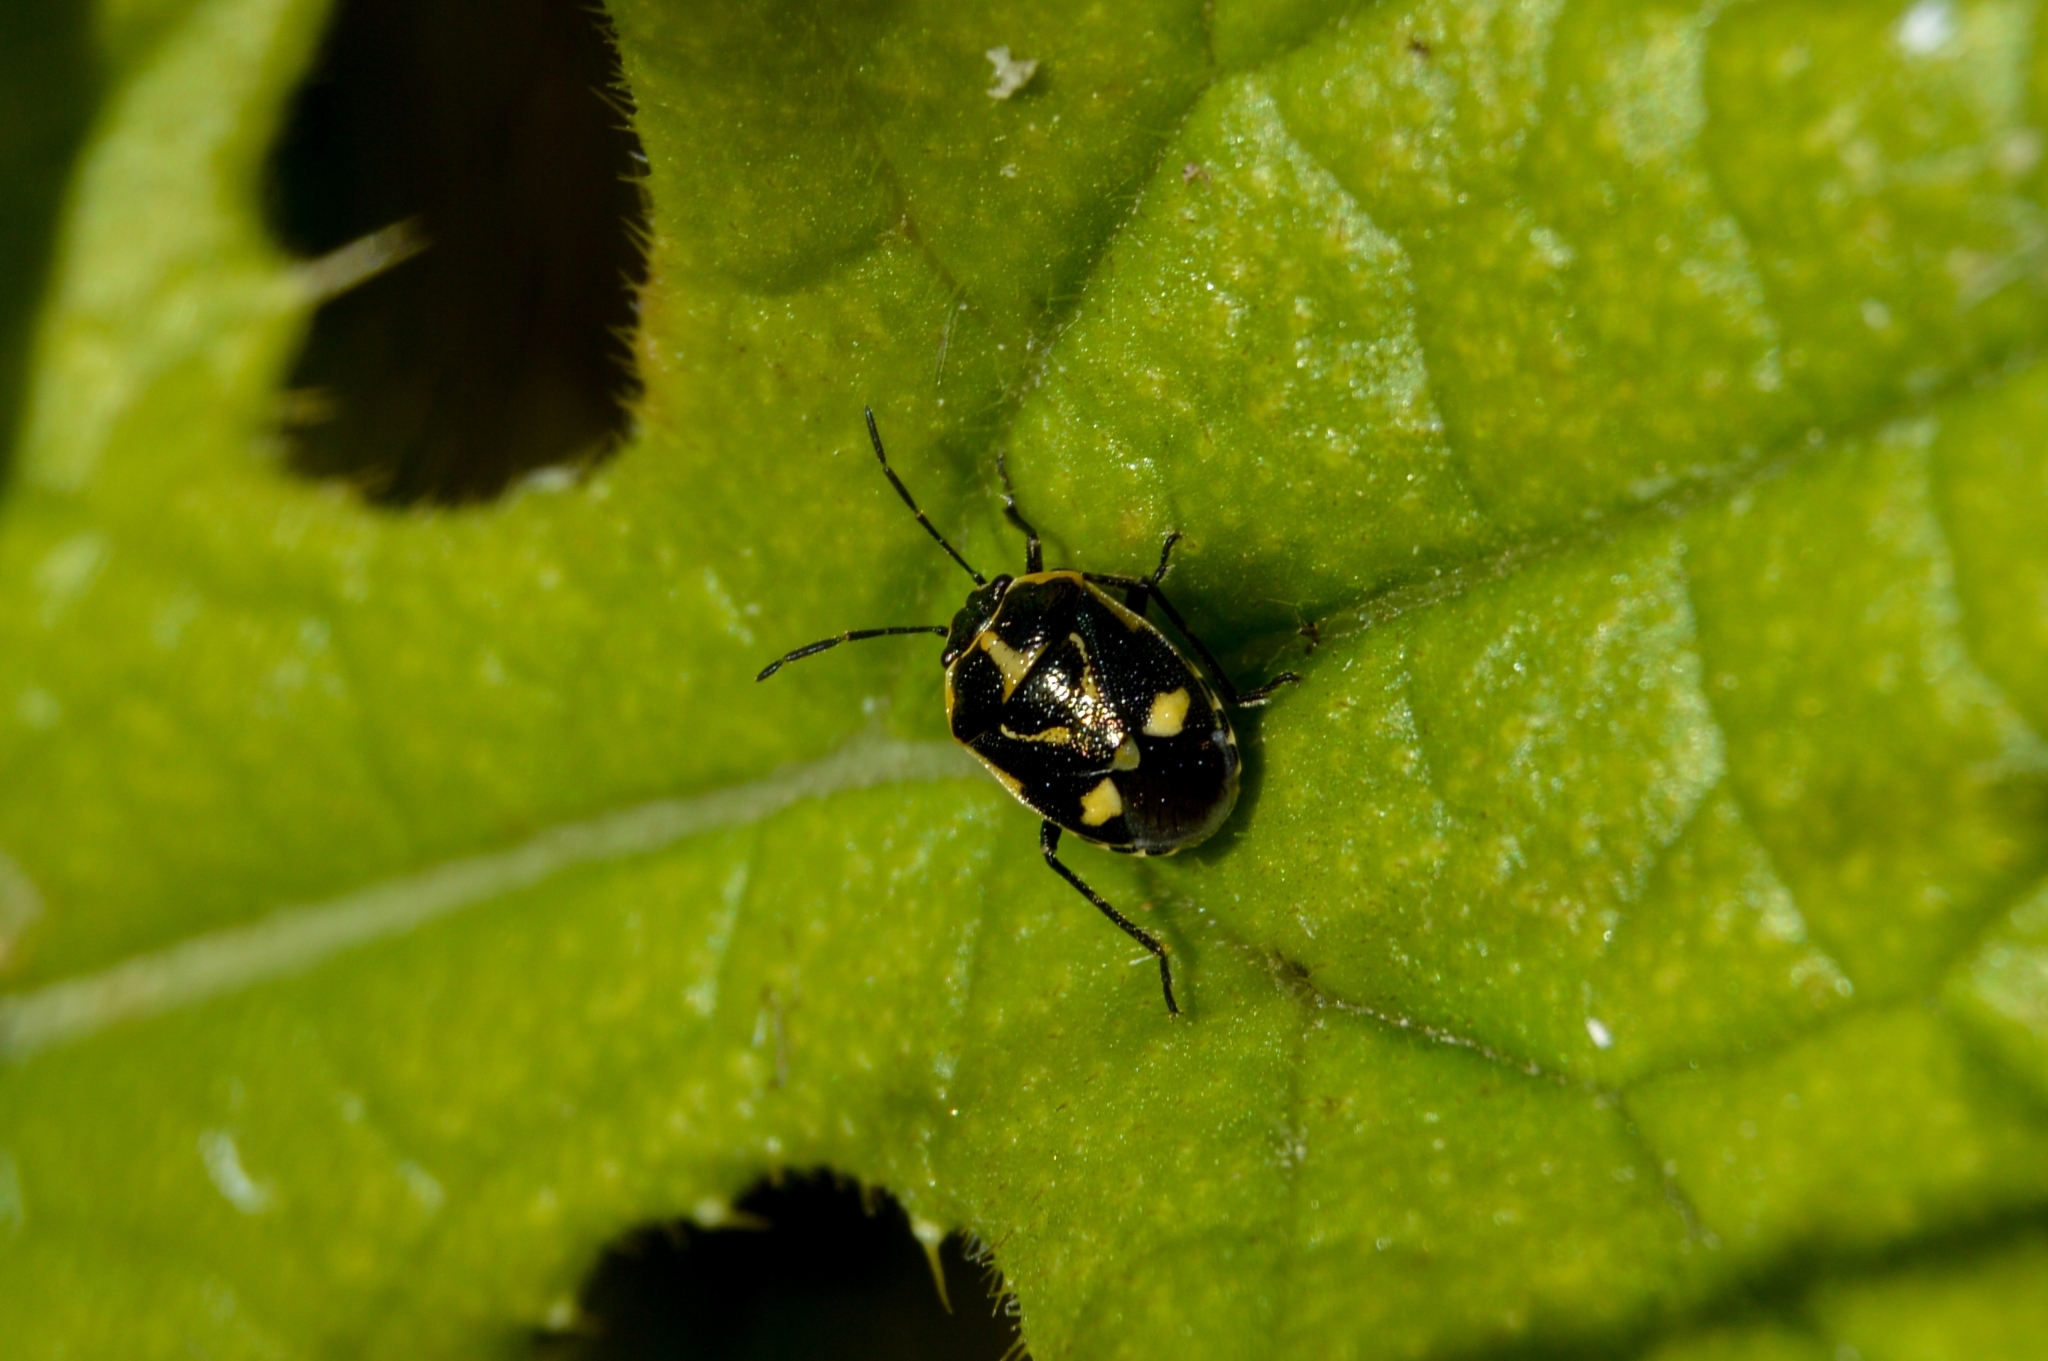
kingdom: Animalia
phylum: Arthropoda
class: Insecta
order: Hemiptera
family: Pentatomidae
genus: Eurydema
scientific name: Eurydema oleracea
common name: Cabbage bug
